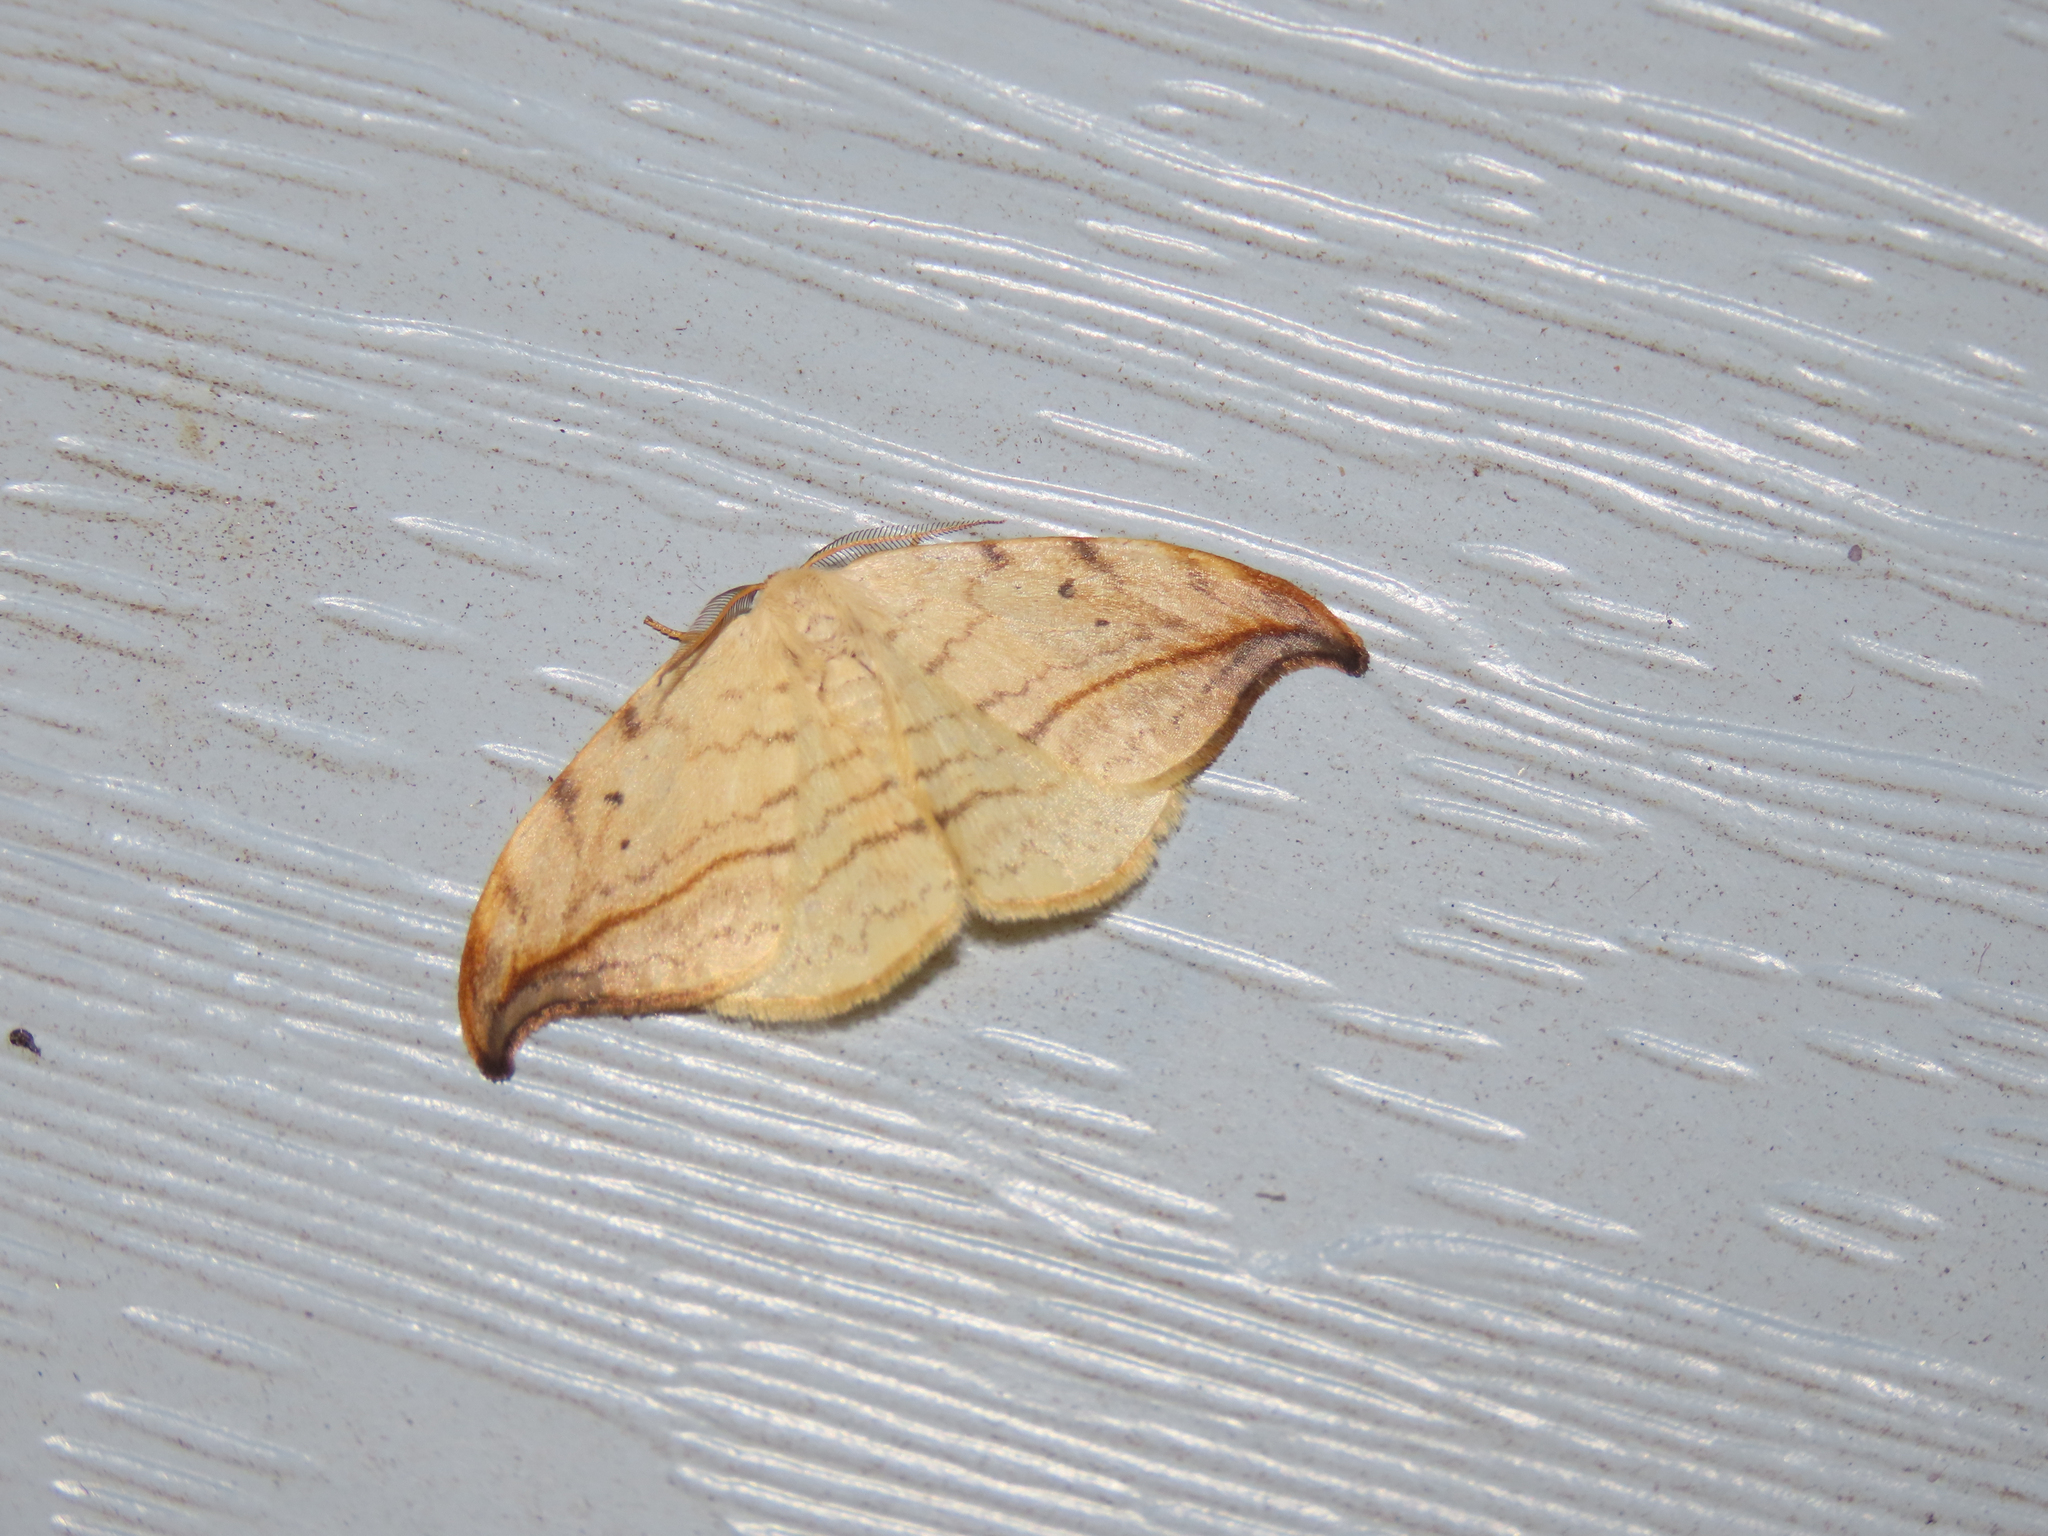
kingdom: Animalia
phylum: Arthropoda
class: Insecta
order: Lepidoptera
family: Drepanidae
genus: Drepana
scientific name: Drepana arcuata
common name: Arched hooktip moth
